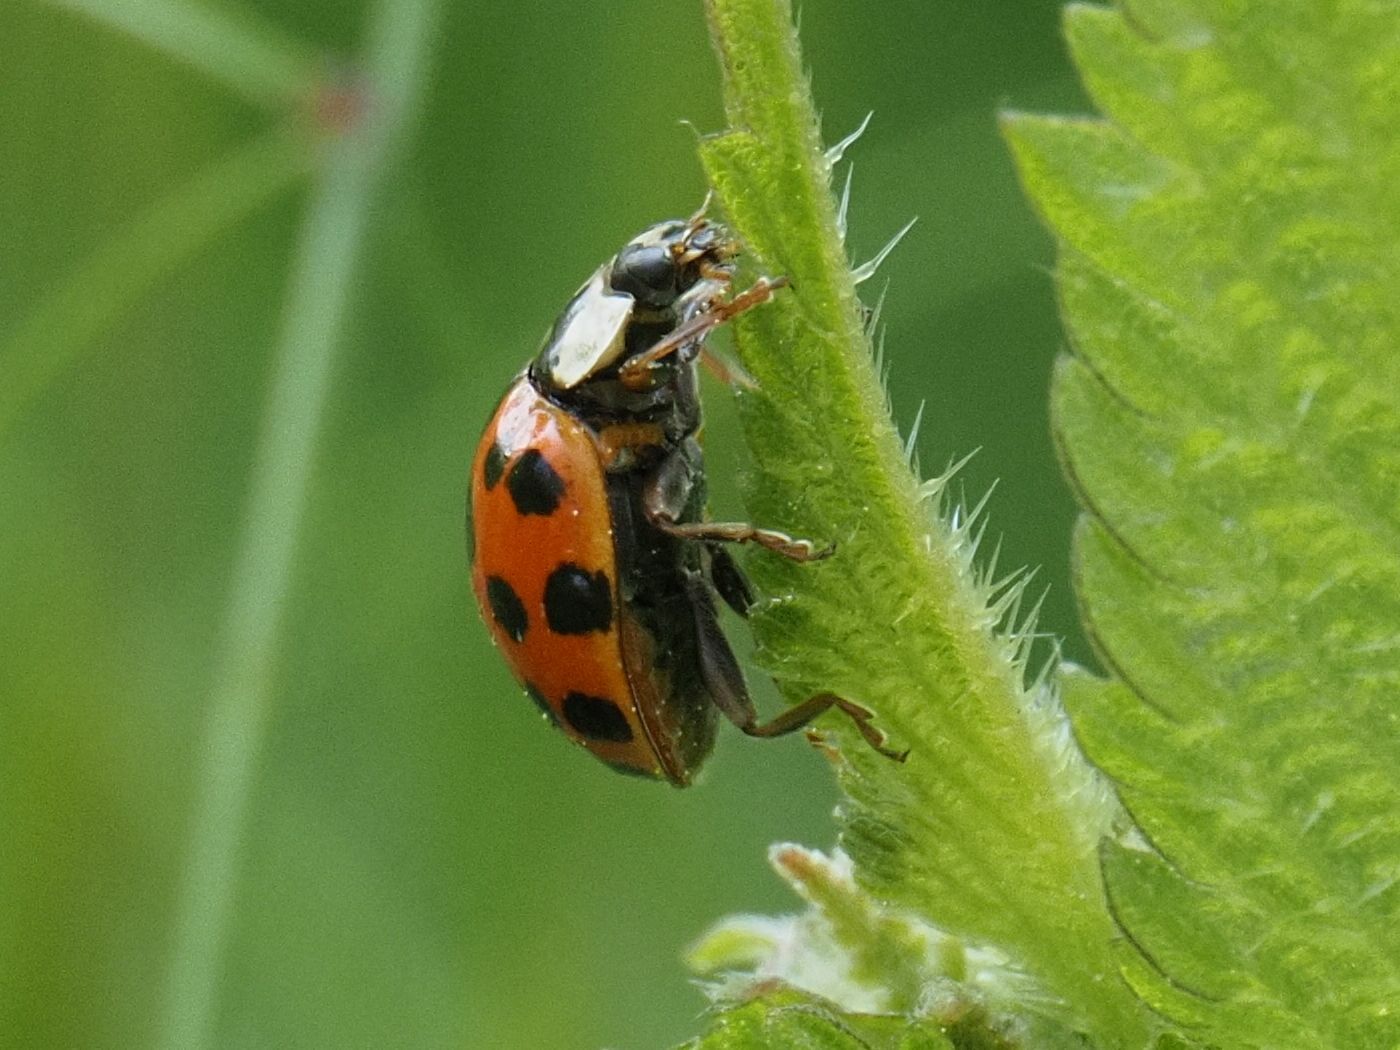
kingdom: Animalia
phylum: Arthropoda
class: Insecta
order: Coleoptera
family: Coccinellidae
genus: Harmonia
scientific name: Harmonia axyridis
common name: Harlequin ladybird
